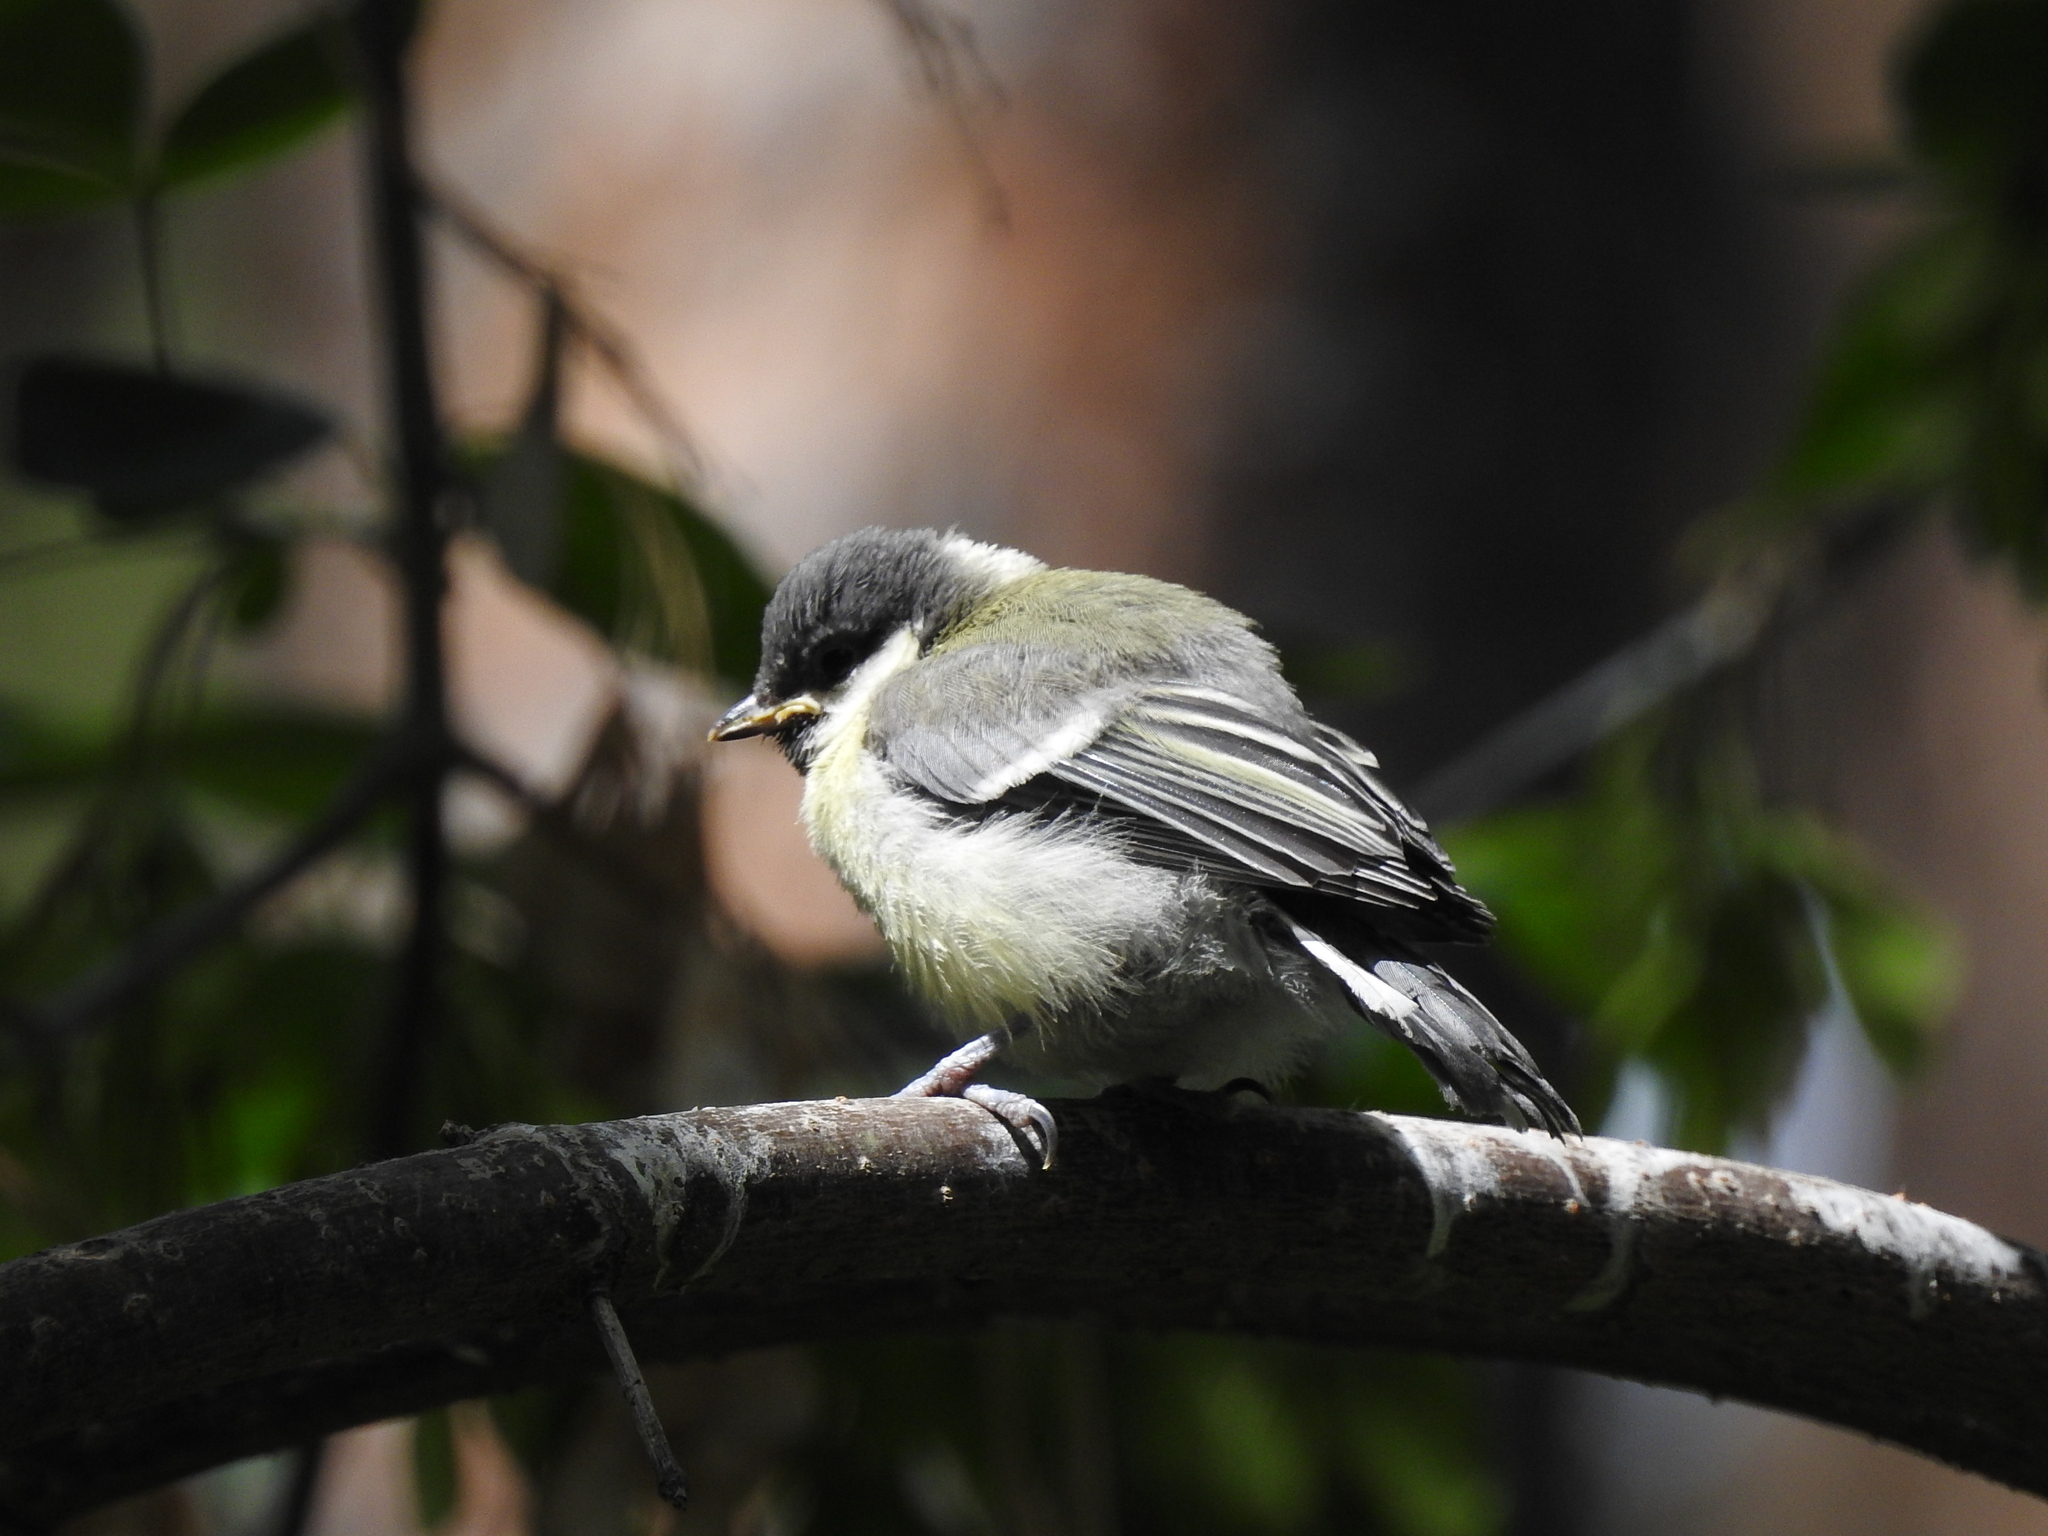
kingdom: Animalia
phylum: Chordata
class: Aves
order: Passeriformes
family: Paridae
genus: Parus
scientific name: Parus major
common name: Great tit
